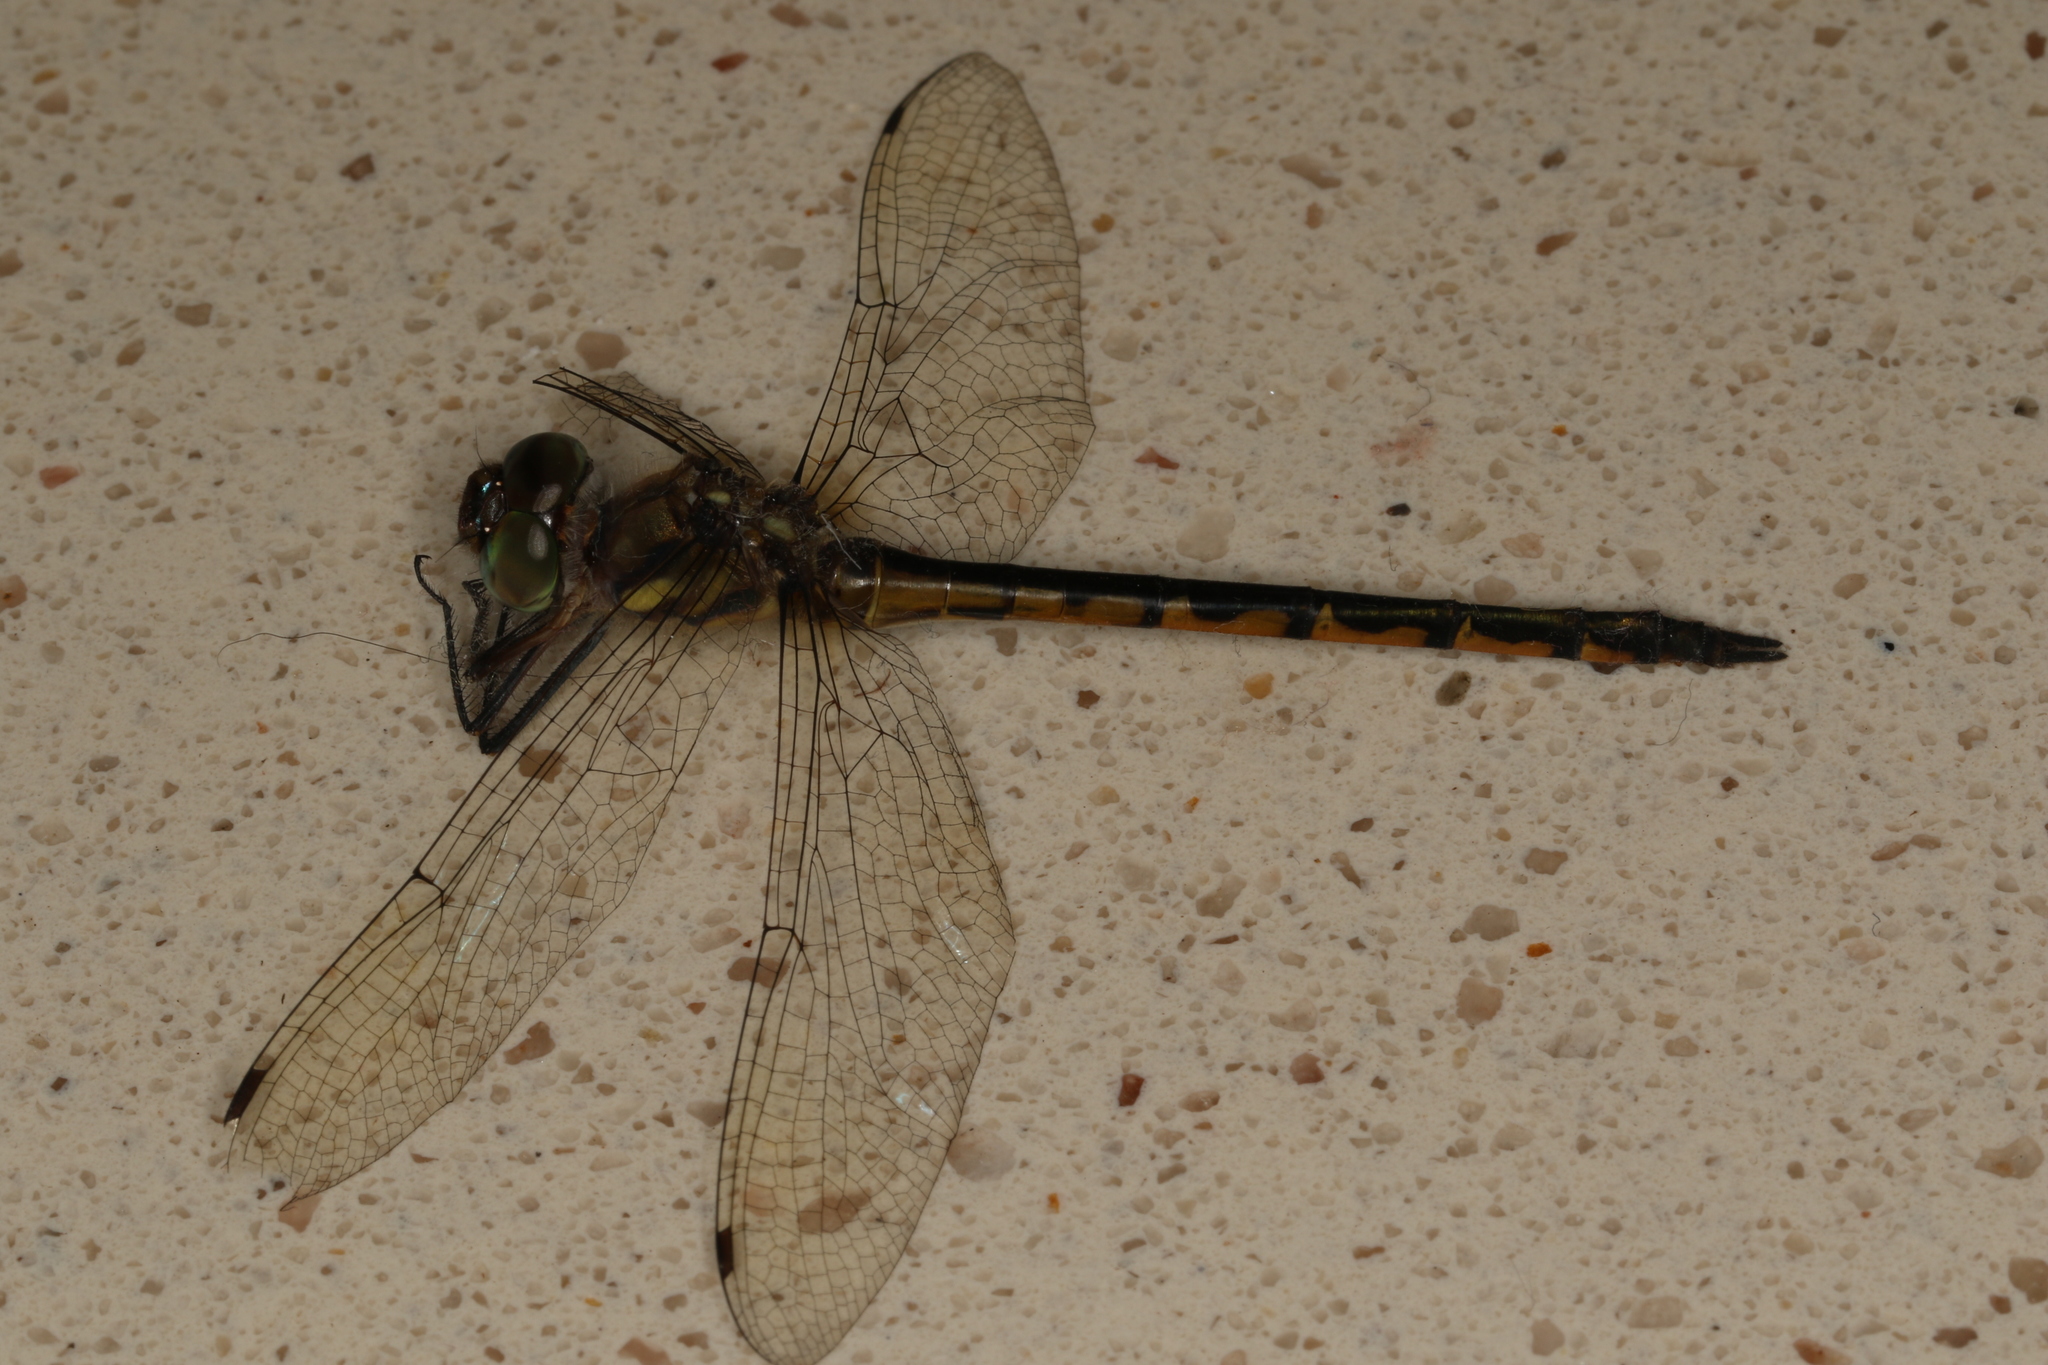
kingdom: Animalia
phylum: Arthropoda
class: Insecta
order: Odonata
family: Corduliidae
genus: Hemicordulia
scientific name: Hemicordulia australiae
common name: Sentry dragonfly
